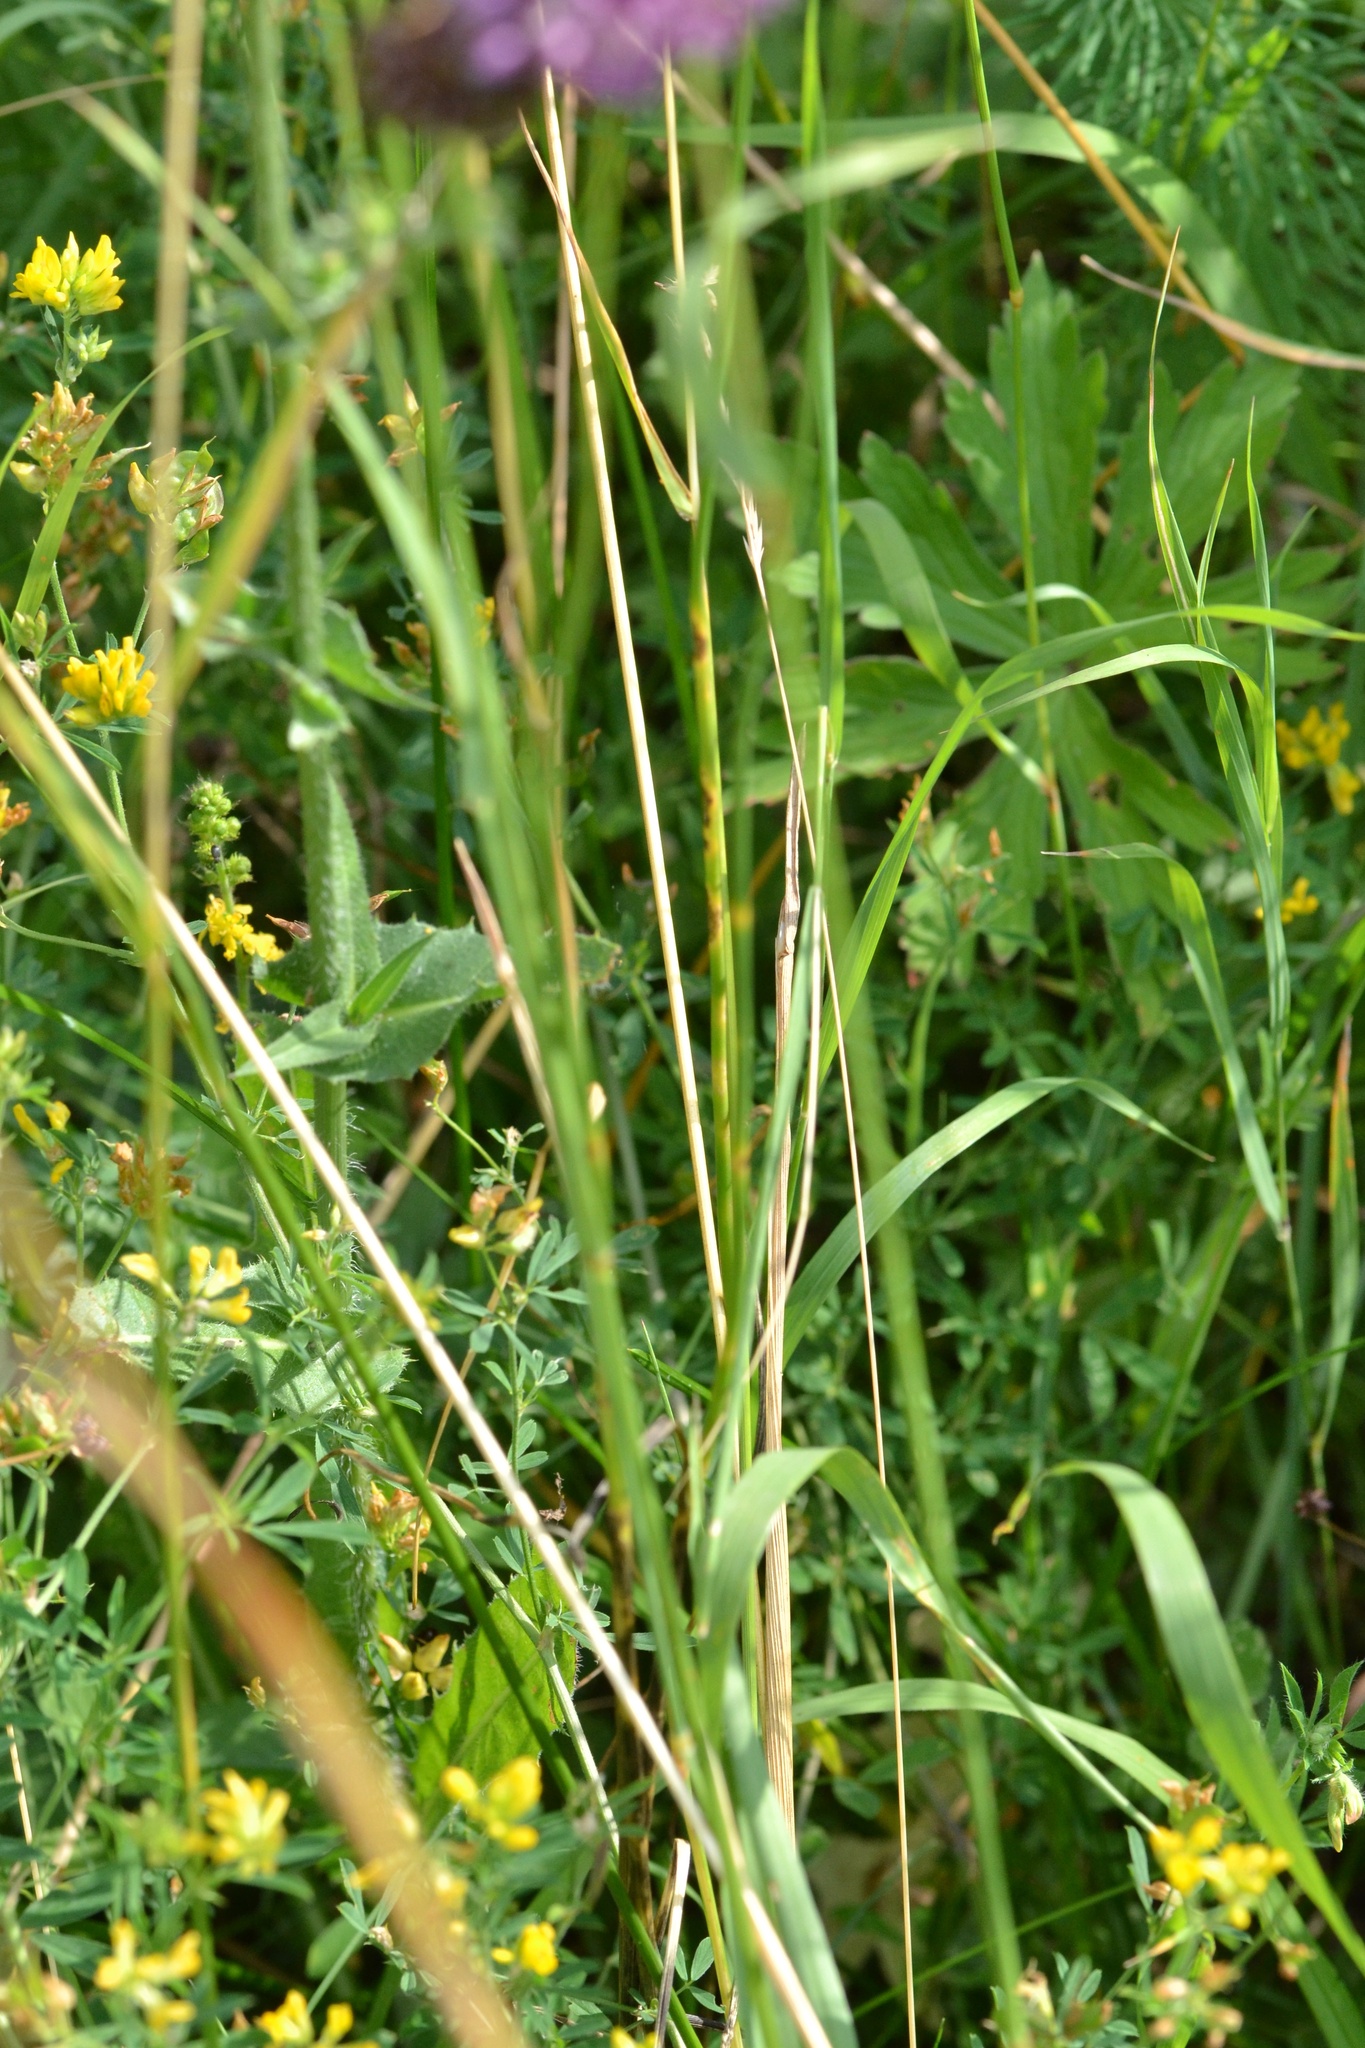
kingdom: Plantae
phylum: Tracheophyta
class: Liliopsida
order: Asparagales
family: Amaryllidaceae
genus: Allium
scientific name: Allium vineale
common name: Crow garlic
